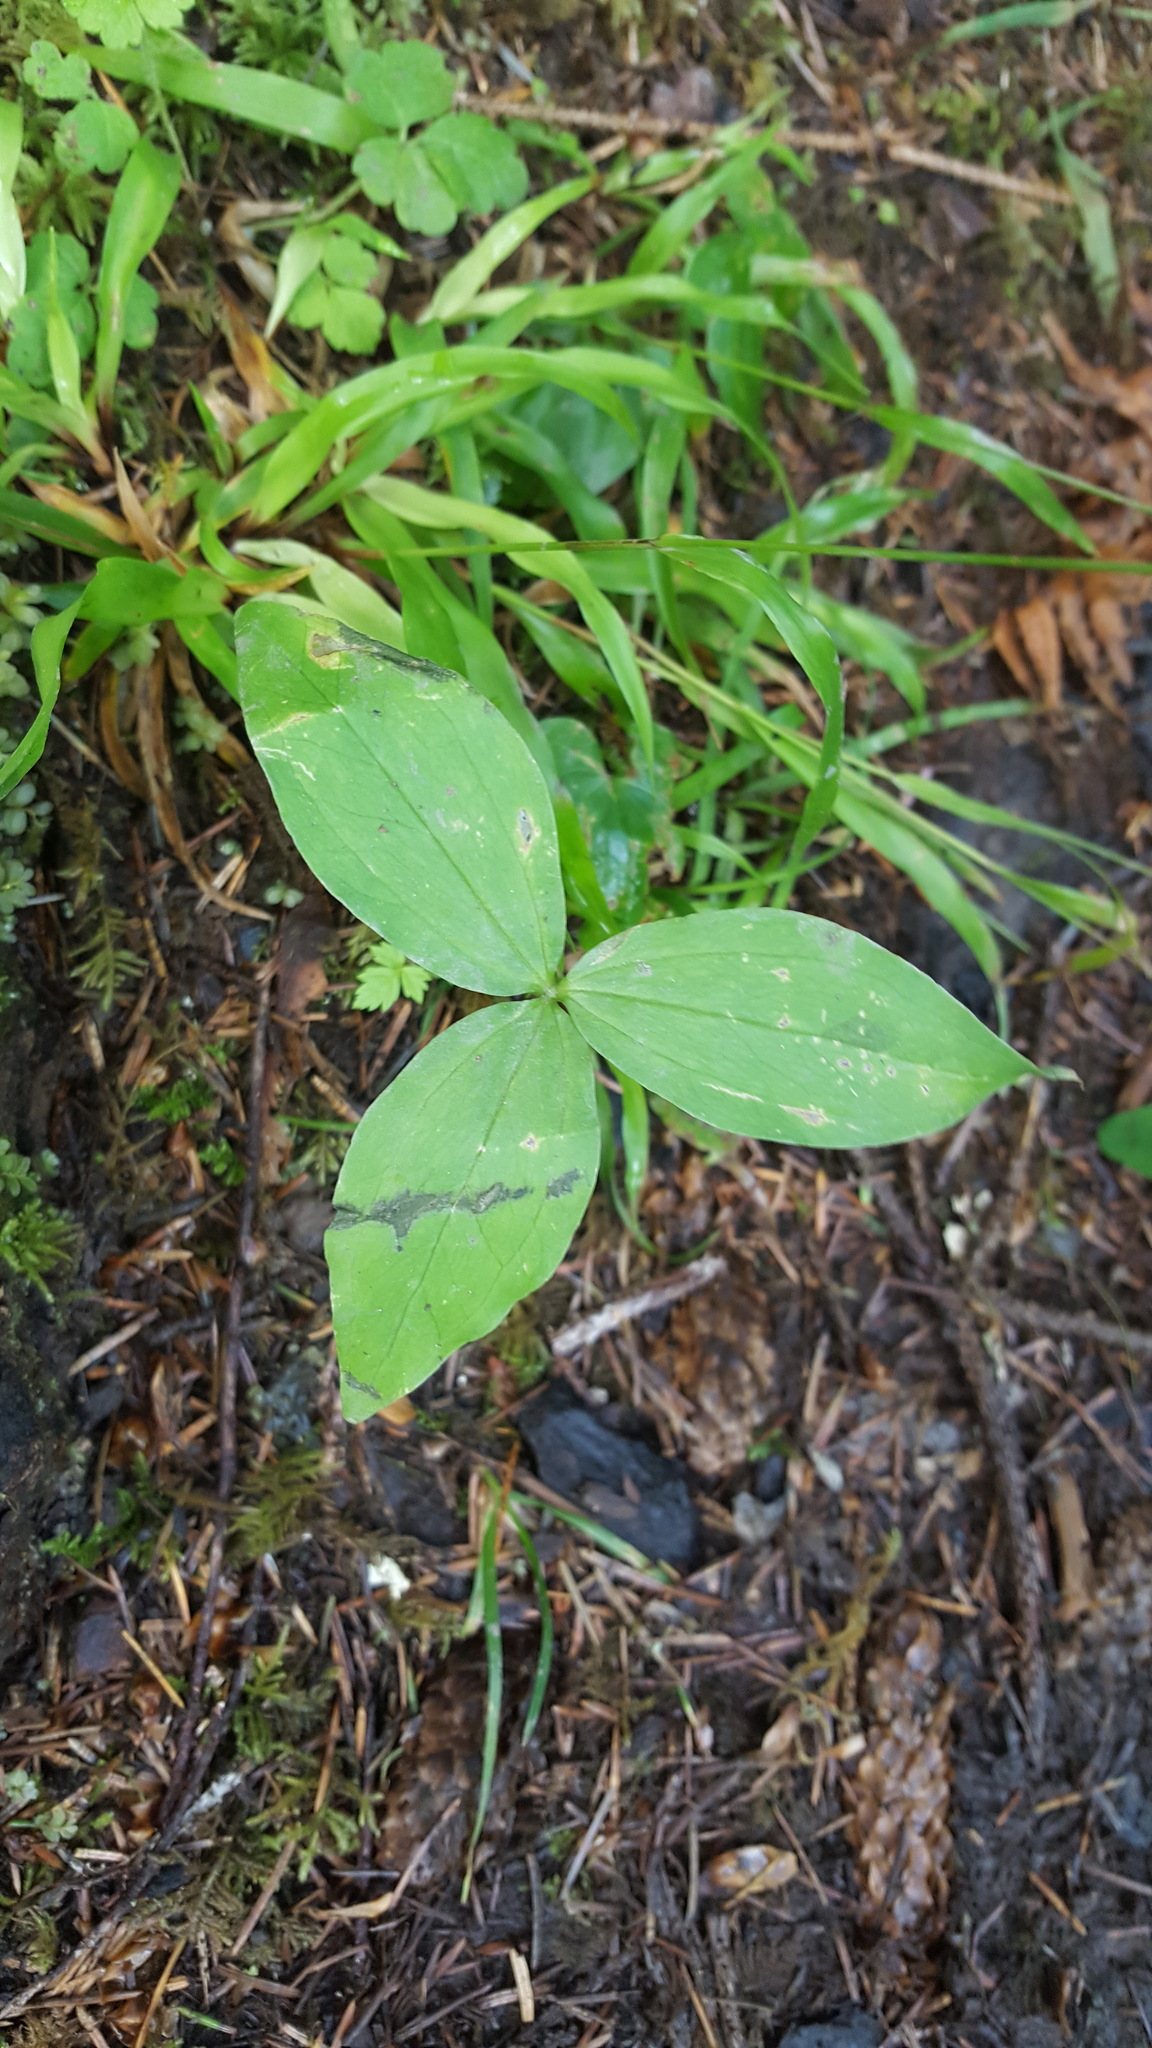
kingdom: Plantae
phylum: Tracheophyta
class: Liliopsida
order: Liliales
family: Melanthiaceae
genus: Trillium
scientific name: Trillium ovatum
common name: Pacific trillium
